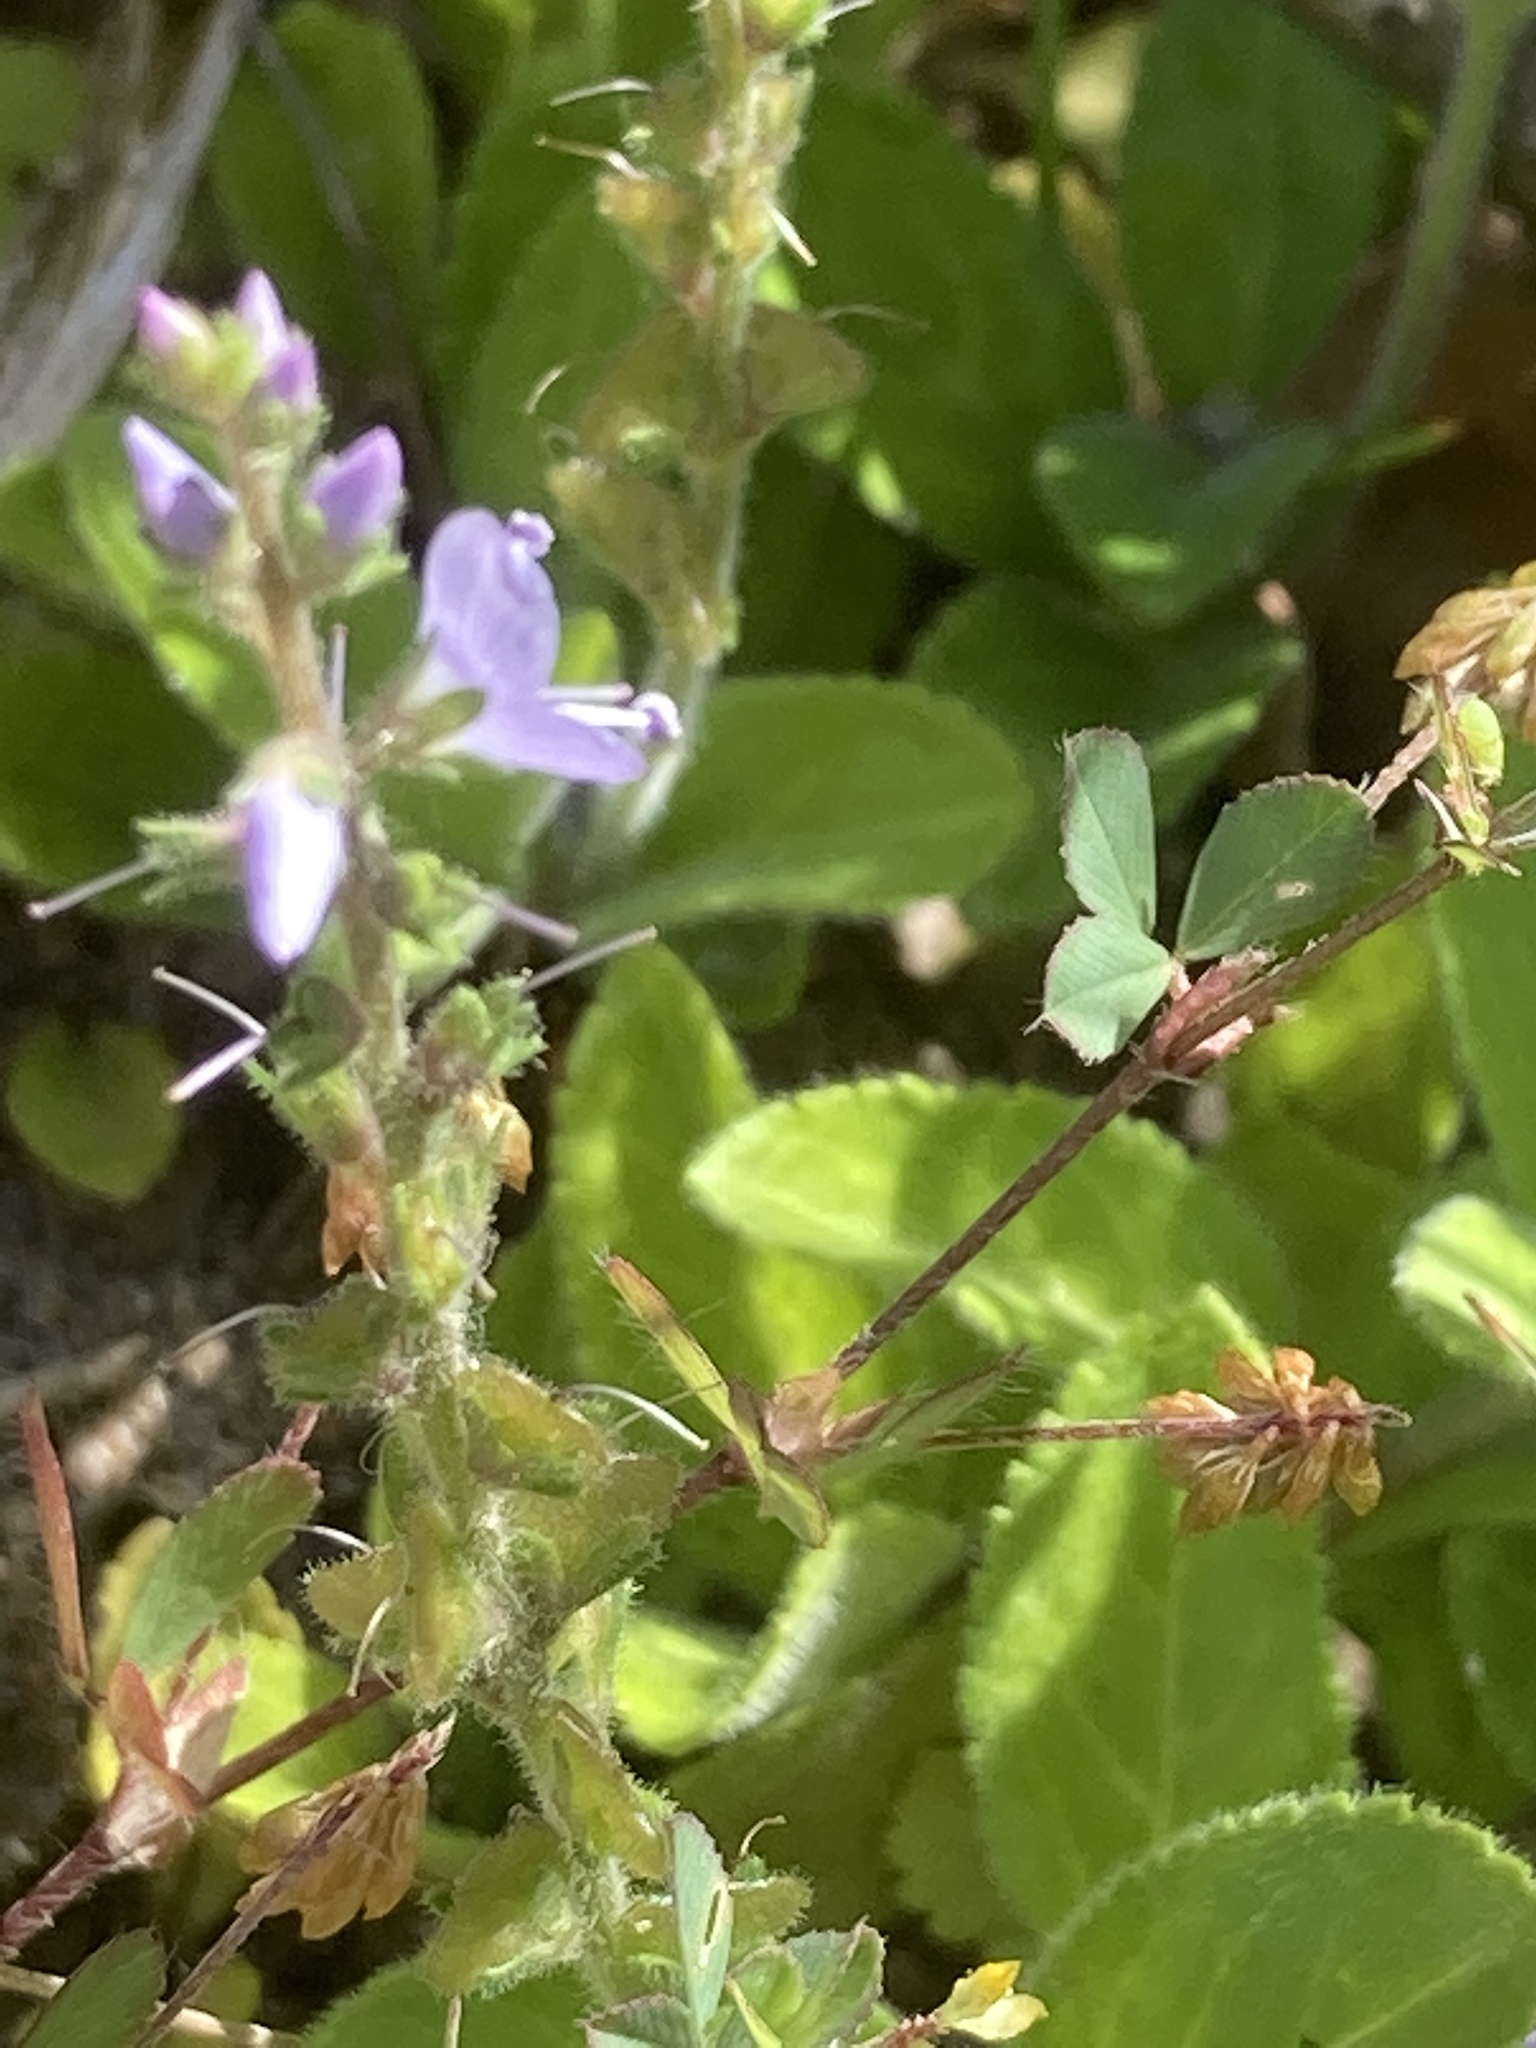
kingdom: Plantae
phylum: Tracheophyta
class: Magnoliopsida
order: Lamiales
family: Plantaginaceae
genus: Veronica
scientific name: Veronica officinalis
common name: Common speedwell
